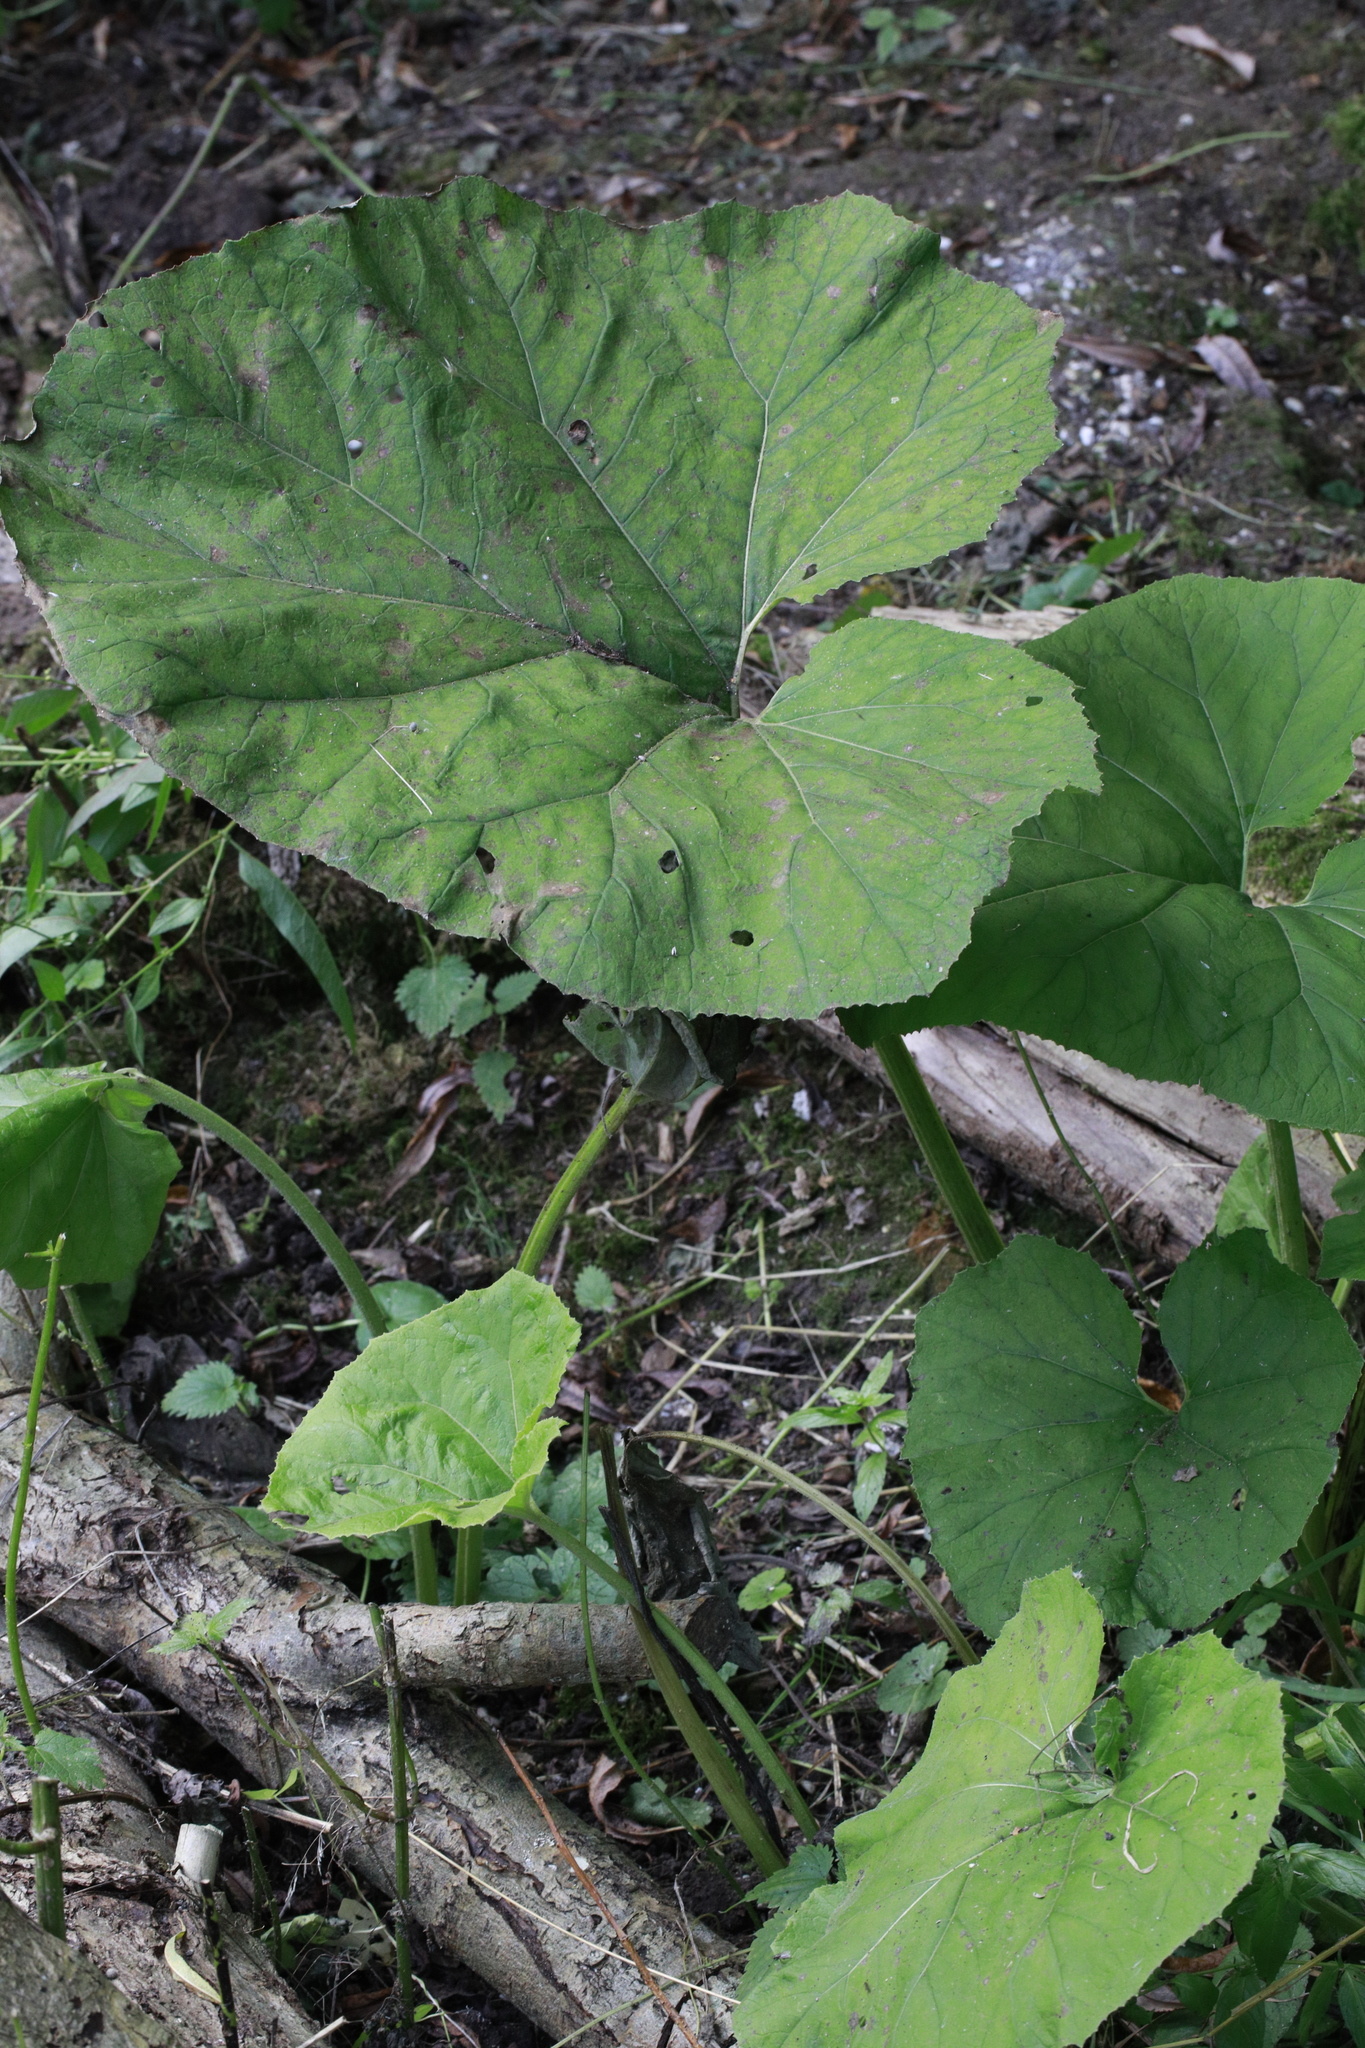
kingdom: Plantae
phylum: Tracheophyta
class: Magnoliopsida
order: Asterales
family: Asteraceae
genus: Petasites
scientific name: Petasites hybridus
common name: Butterbur
